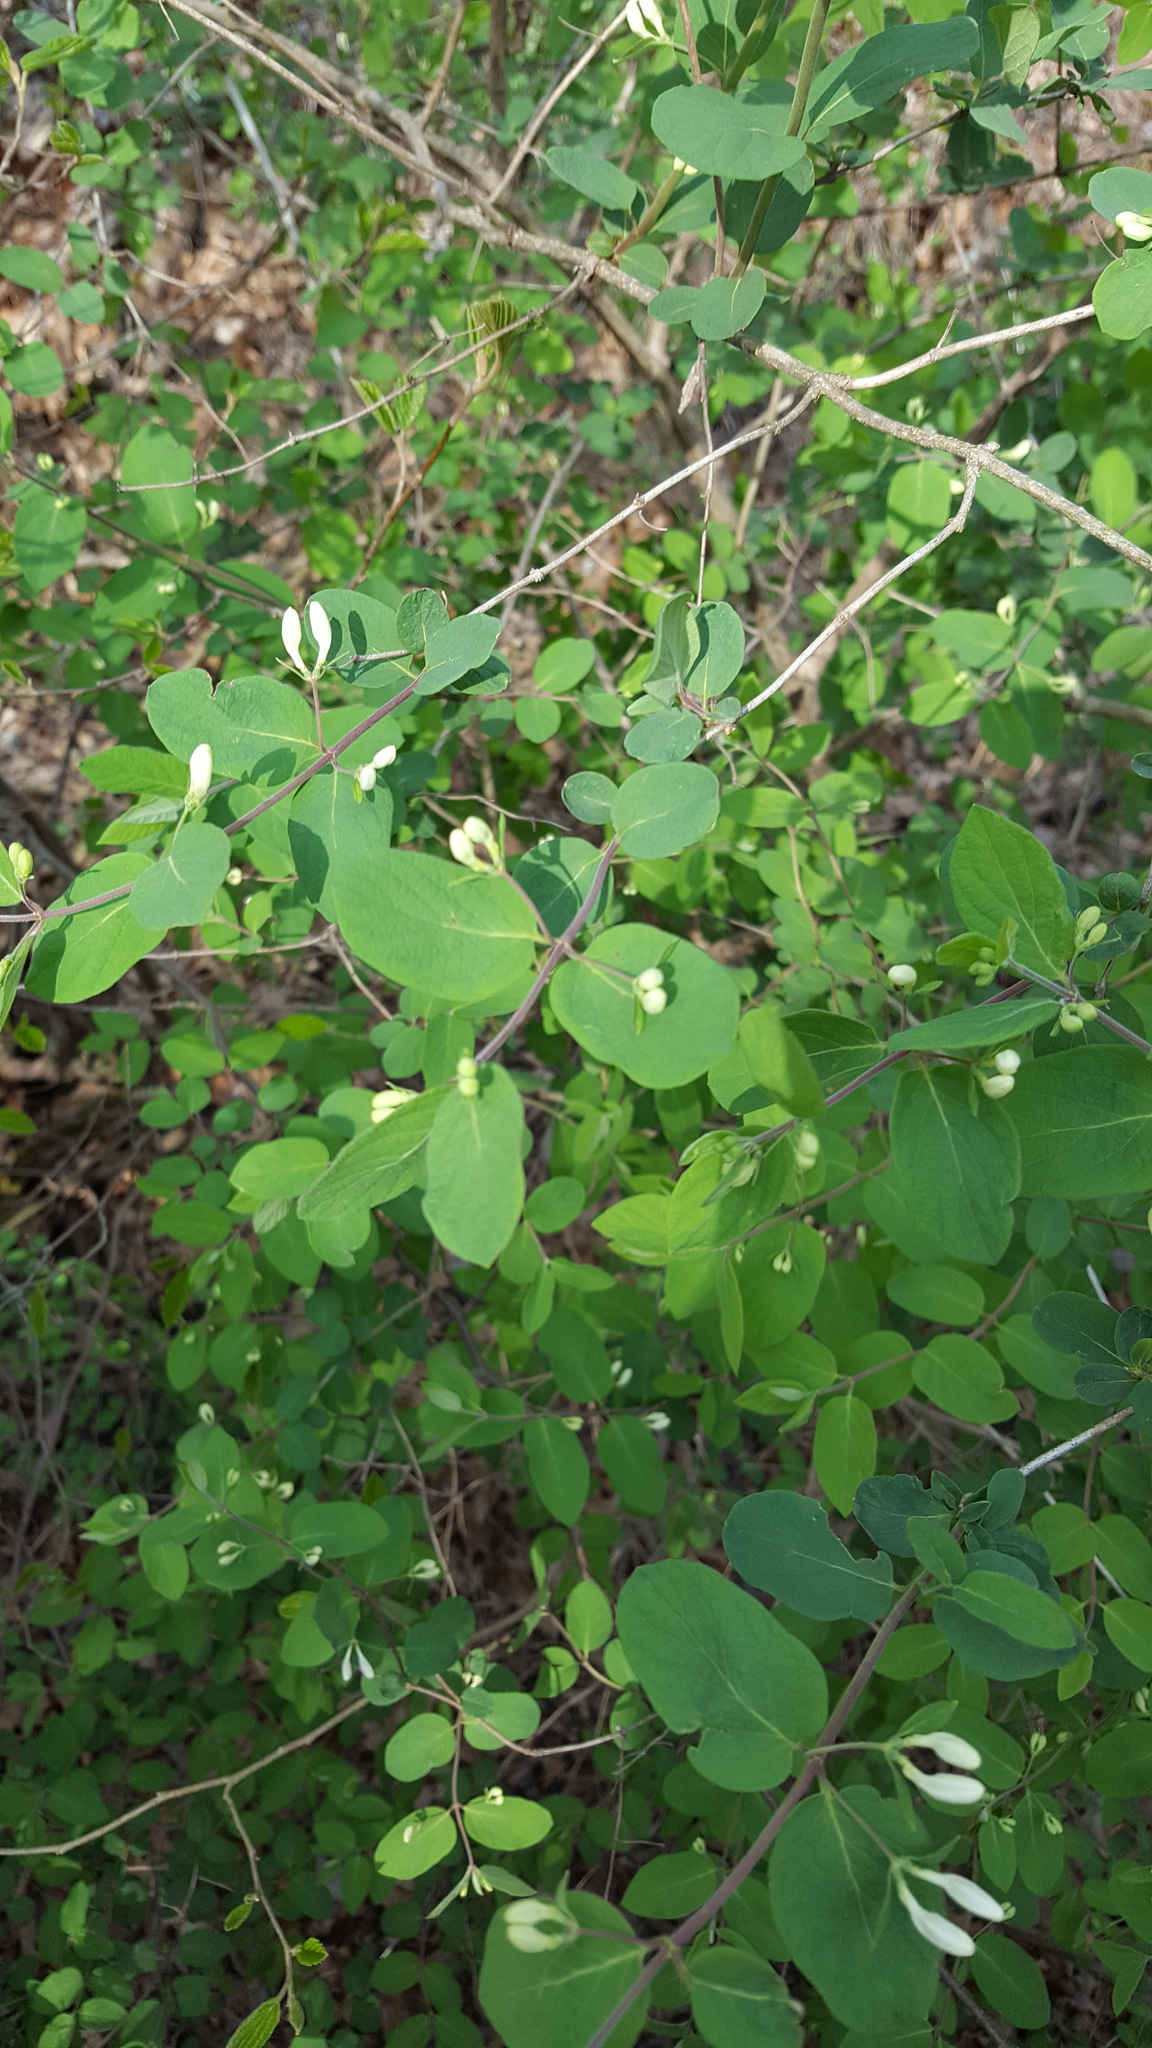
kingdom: Plantae
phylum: Tracheophyta
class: Magnoliopsida
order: Dipsacales
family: Caprifoliaceae
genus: Lonicera
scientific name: Lonicera japonica
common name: Japanese honeysuckle
